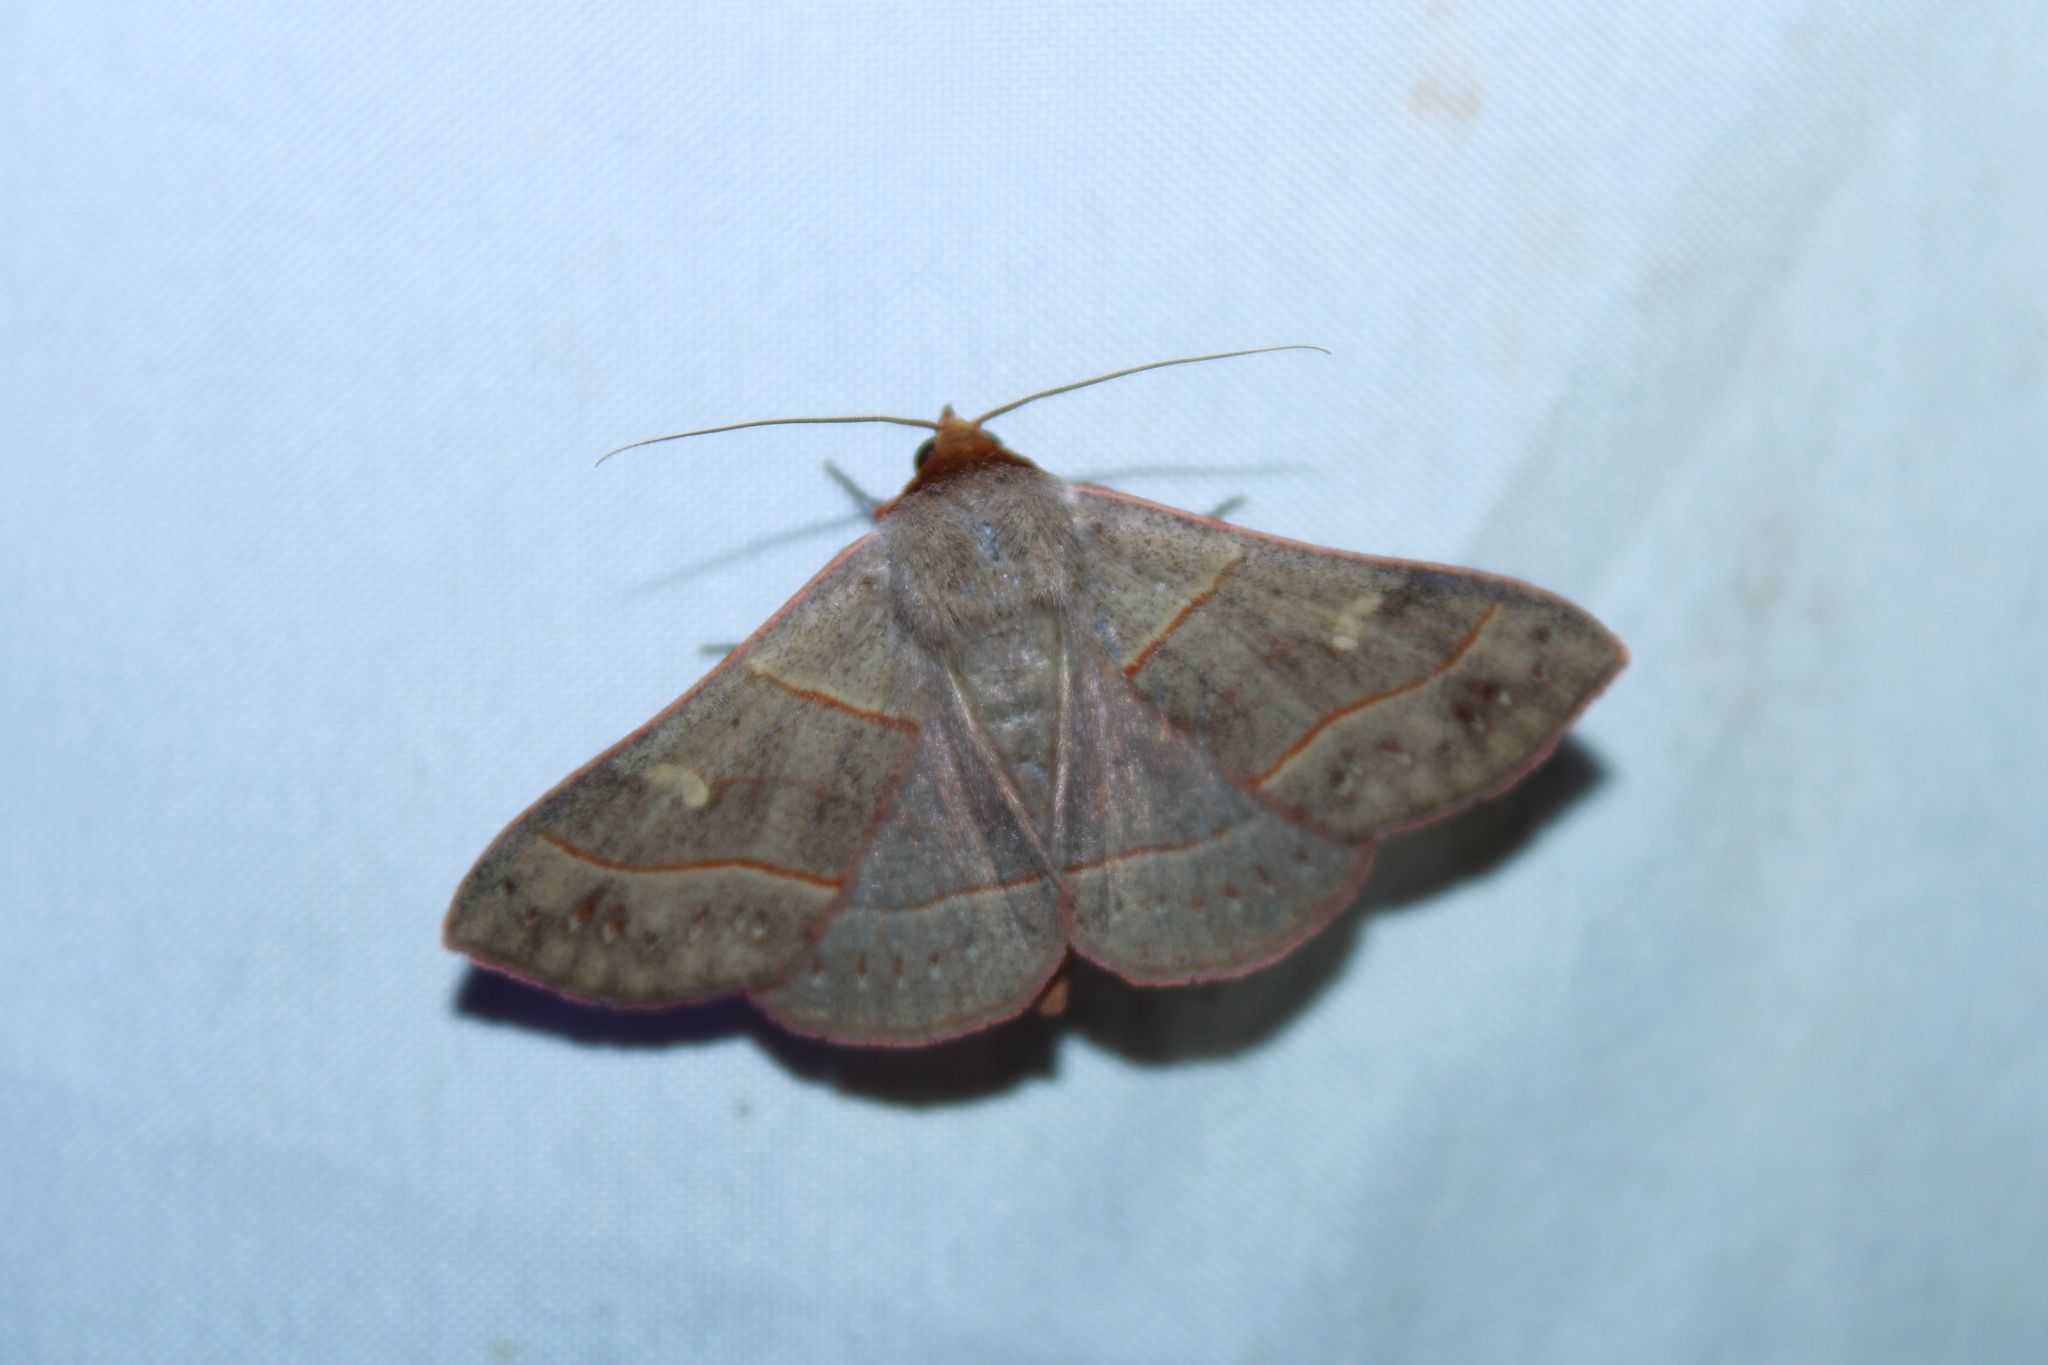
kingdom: Animalia
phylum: Arthropoda
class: Insecta
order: Lepidoptera
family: Erebidae
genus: Panopoda
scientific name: Panopoda rufimargo
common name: Red-lined panopoda moth
